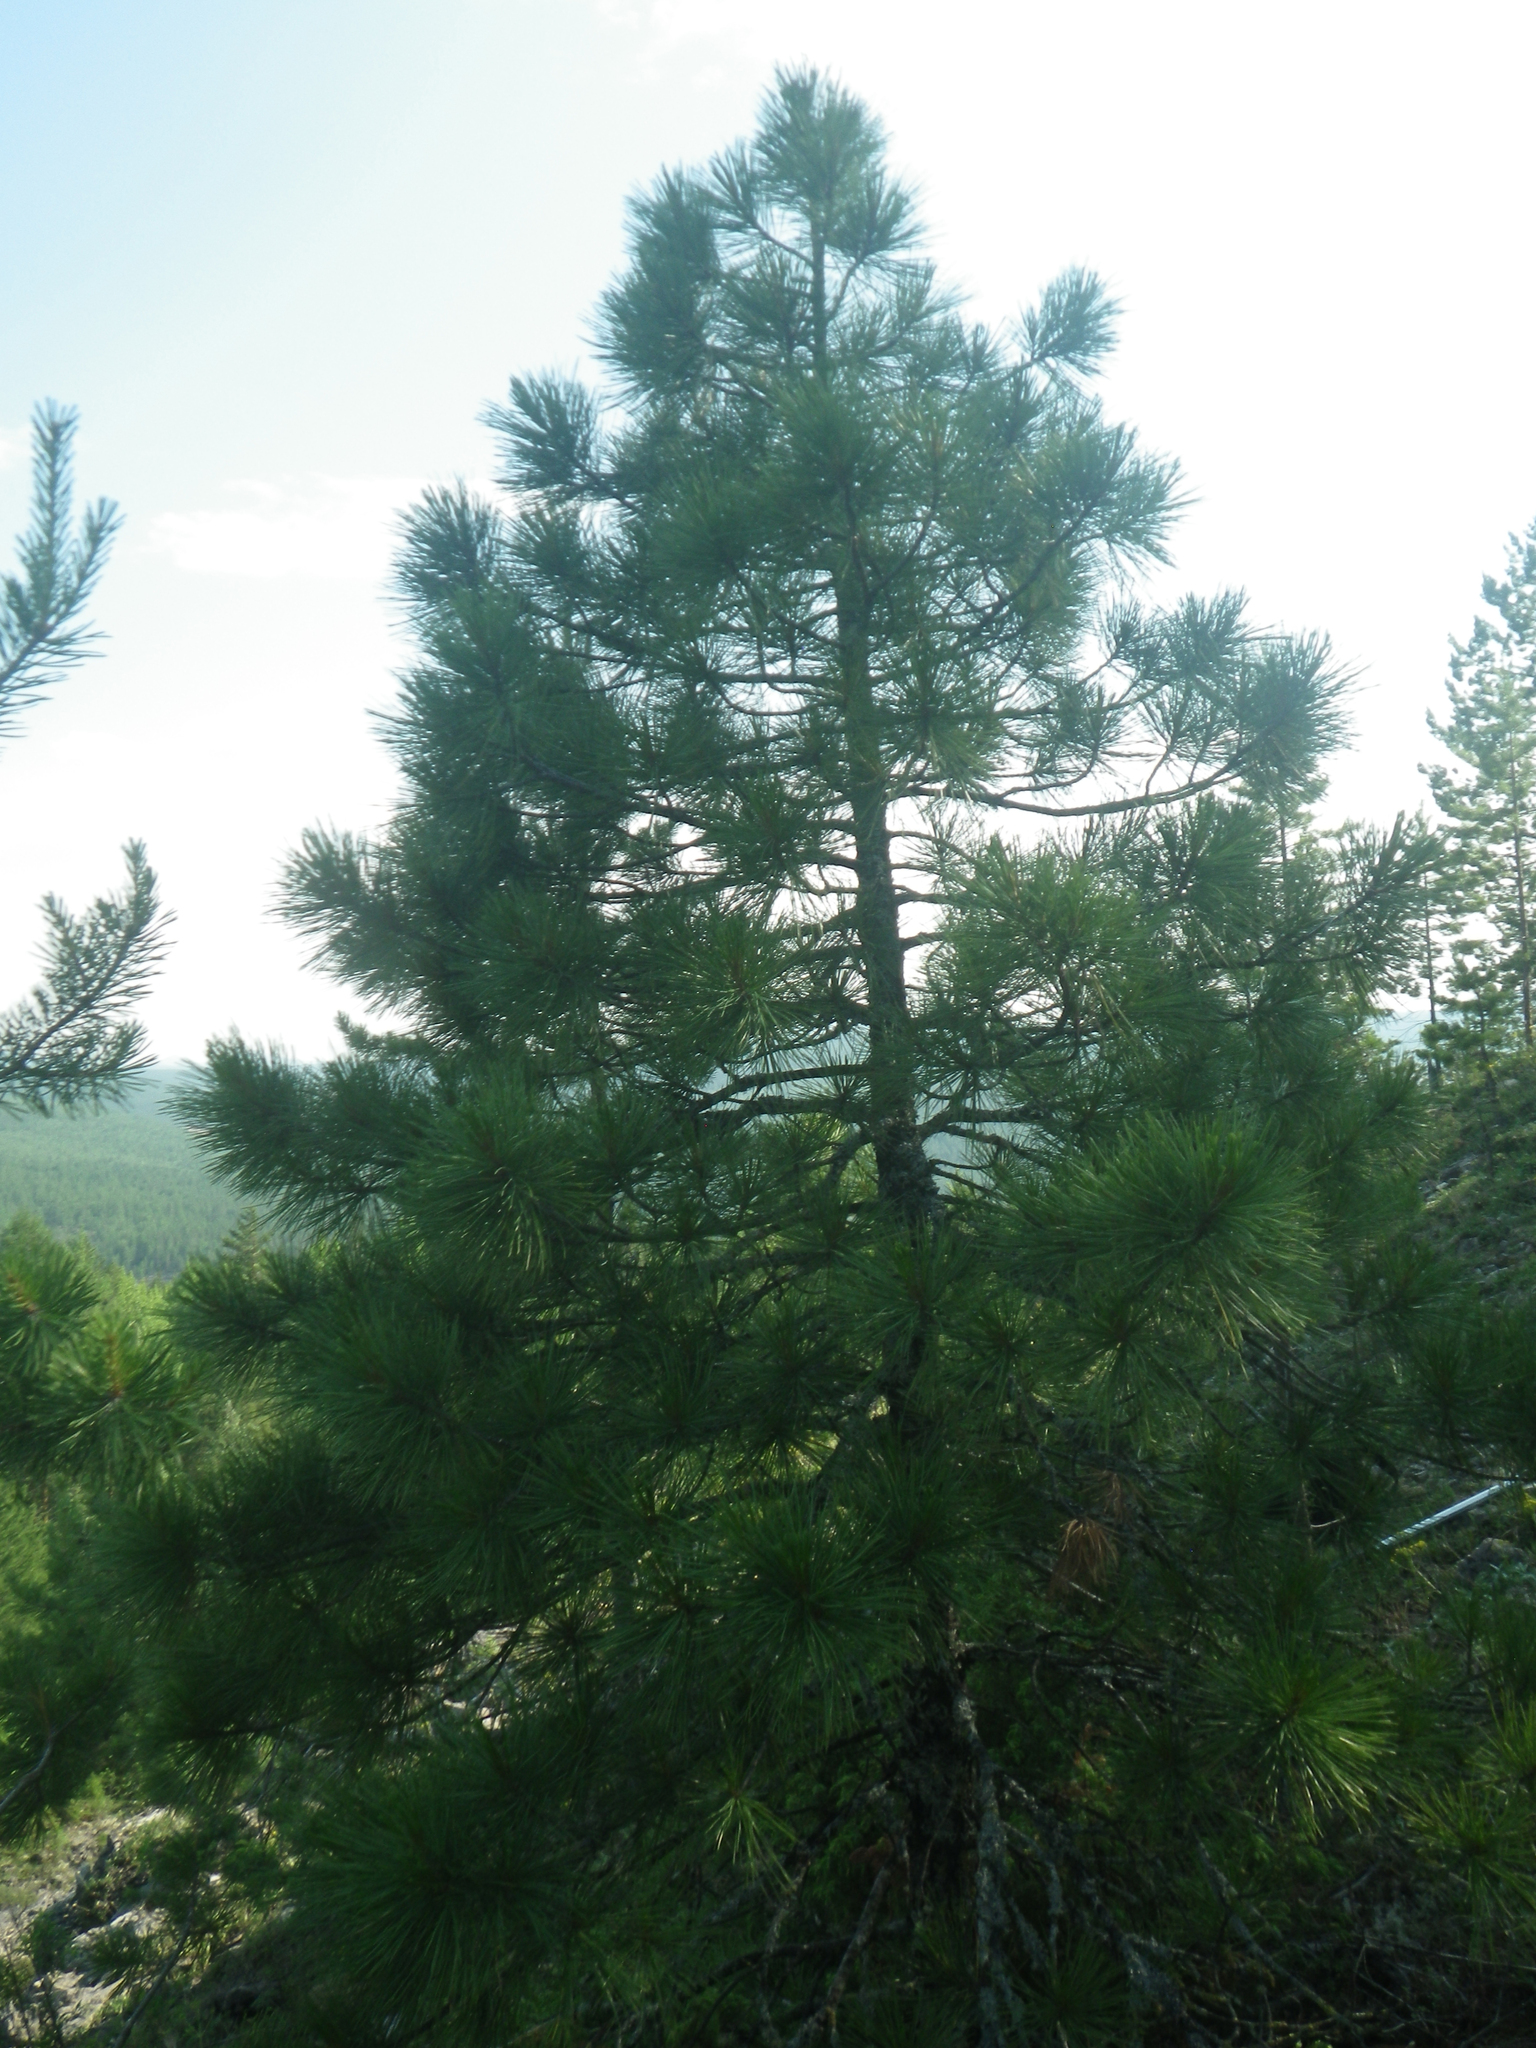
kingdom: Plantae
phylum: Tracheophyta
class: Pinopsida
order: Pinales
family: Pinaceae
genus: Pinus
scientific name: Pinus sibirica
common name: Siberian pine
